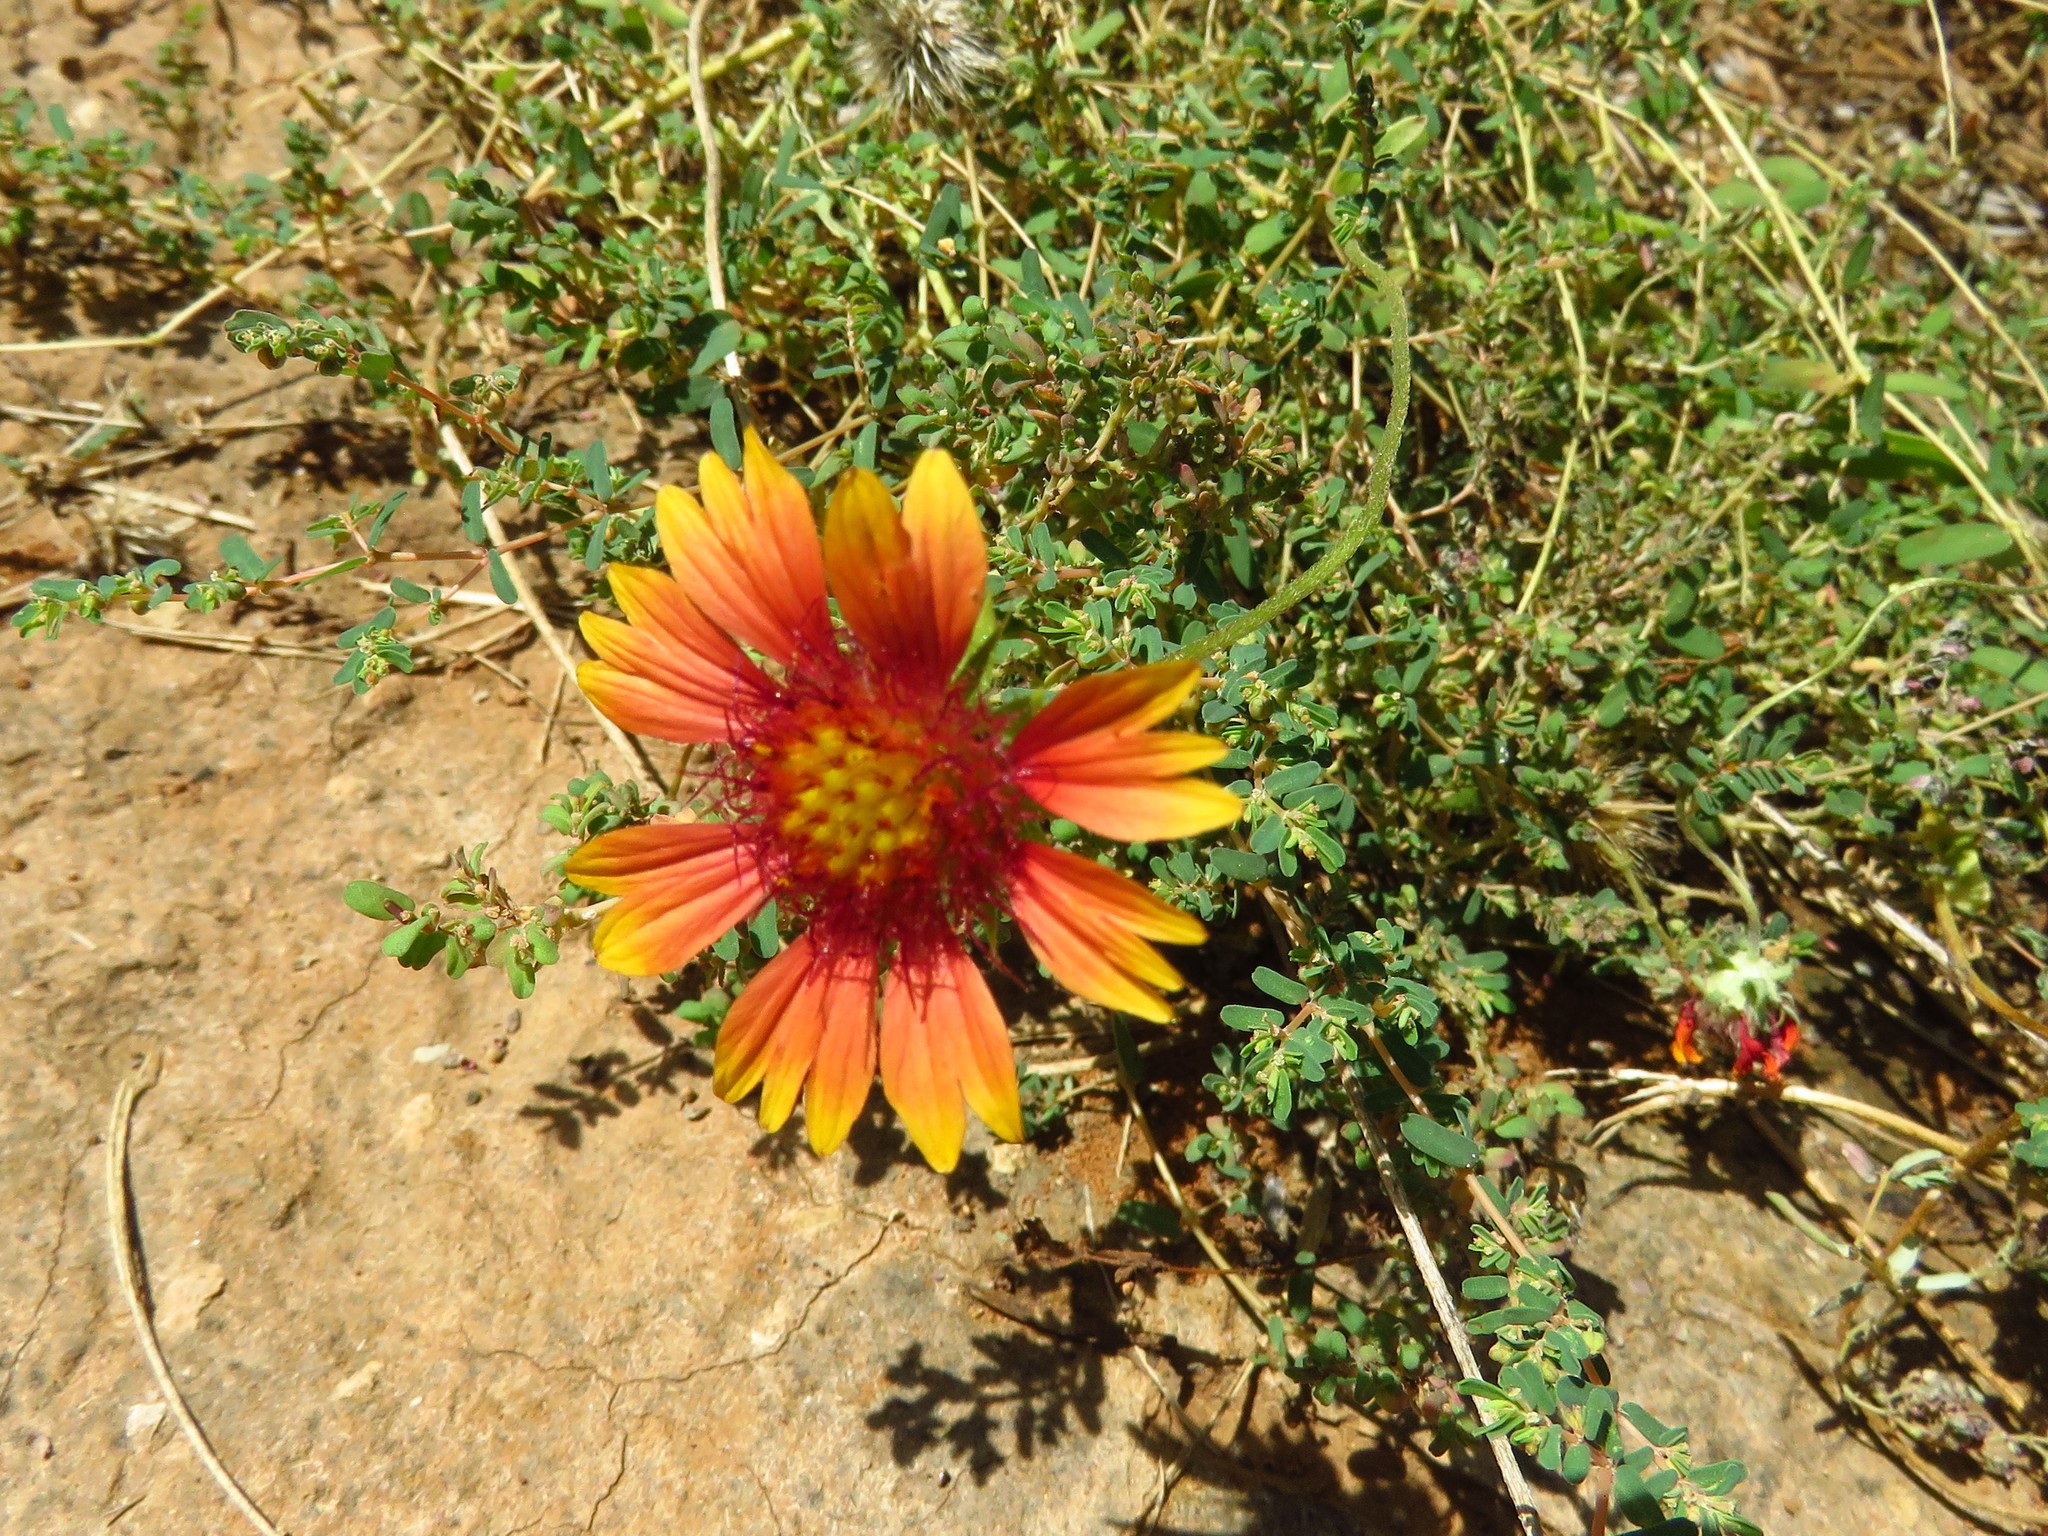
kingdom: Plantae
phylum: Tracheophyta
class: Magnoliopsida
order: Asterales
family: Asteraceae
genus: Gaillardia
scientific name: Gaillardia pulchella
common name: Firewheel
